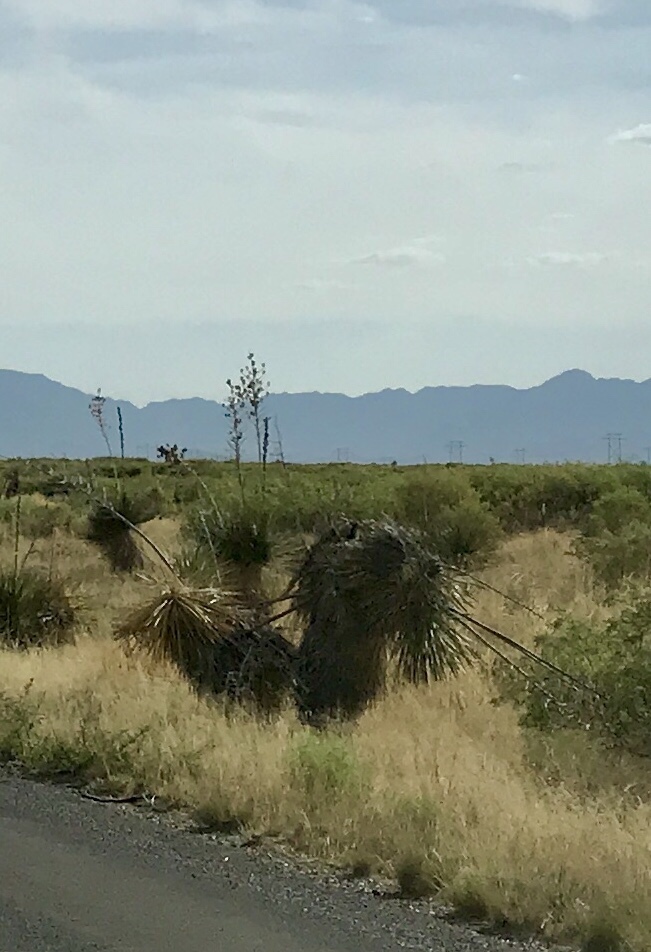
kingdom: Plantae
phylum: Tracheophyta
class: Liliopsida
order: Asparagales
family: Asparagaceae
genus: Yucca
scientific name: Yucca elata
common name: Palmella
